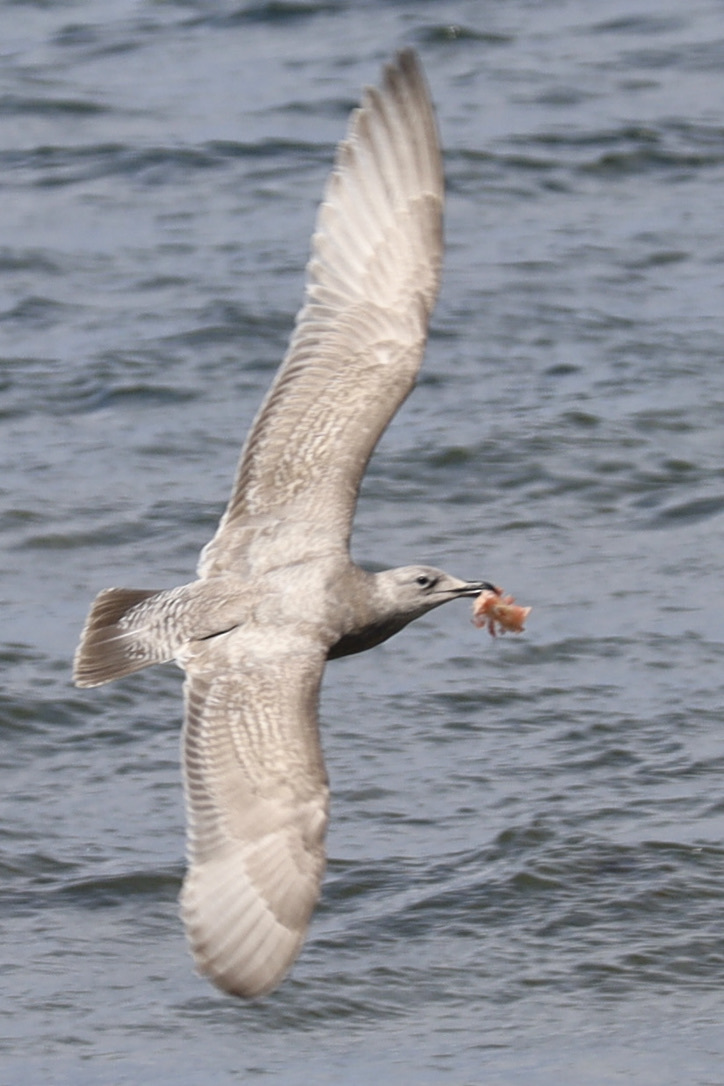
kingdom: Animalia
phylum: Chordata
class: Aves
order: Charadriiformes
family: Laridae
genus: Larus
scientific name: Larus
